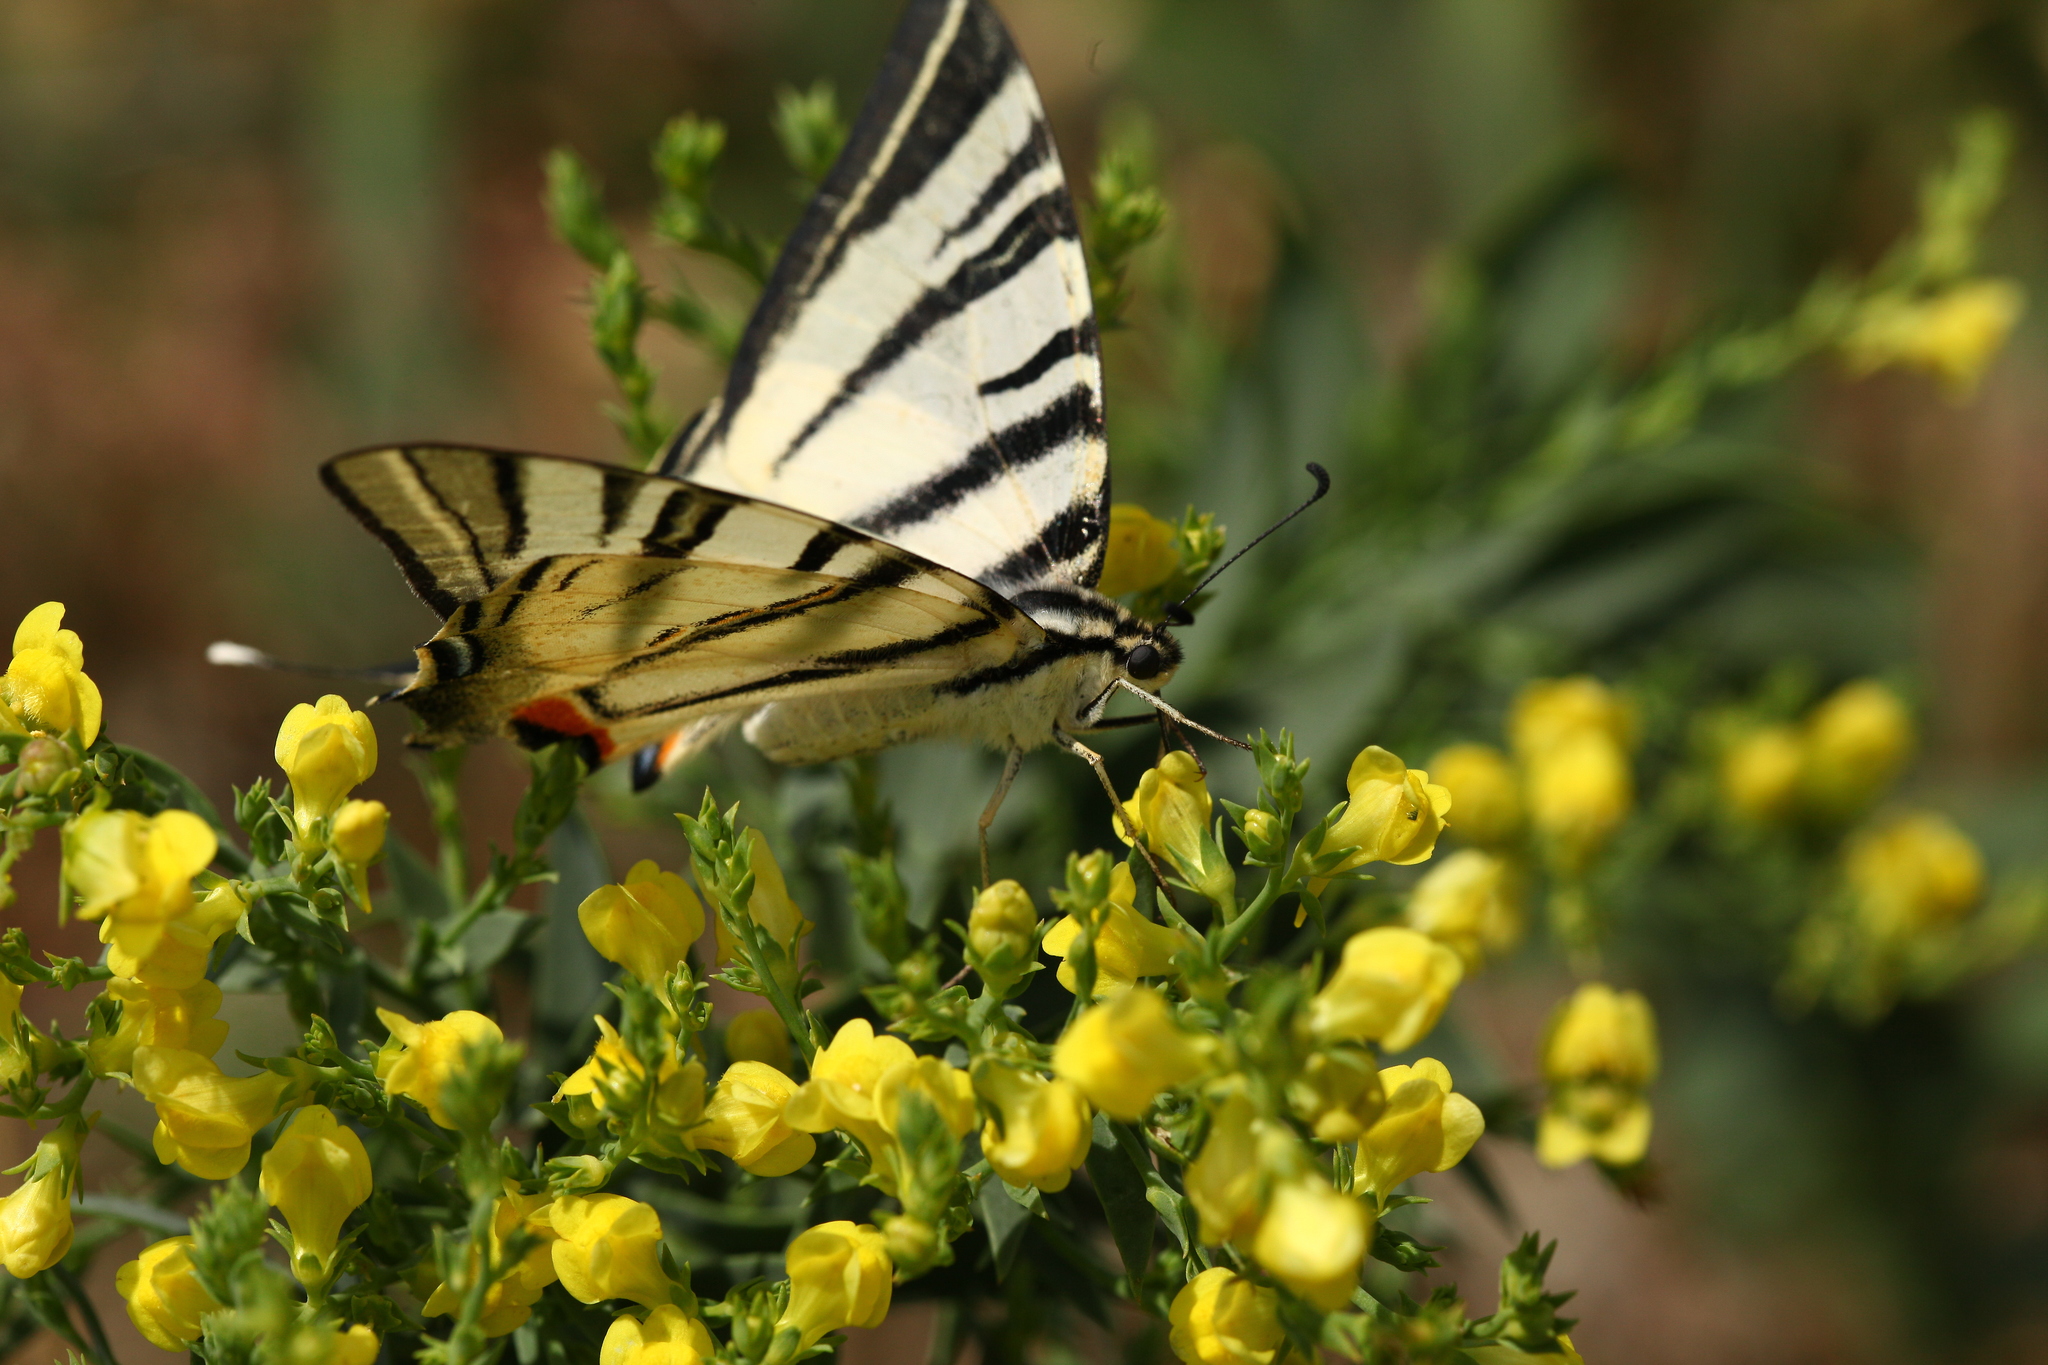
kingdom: Animalia
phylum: Arthropoda
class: Insecta
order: Lepidoptera
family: Papilionidae
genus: Iphiclides
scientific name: Iphiclides podalirius
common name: Scarce swallowtail
